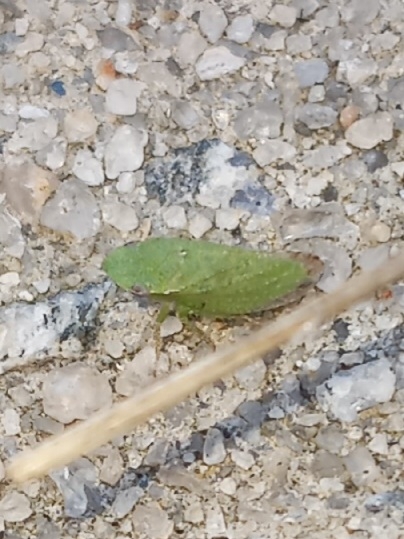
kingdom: Animalia
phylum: Arthropoda
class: Insecta
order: Hemiptera
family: Cicadellidae
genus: Xerophloea
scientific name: Xerophloea viridis
